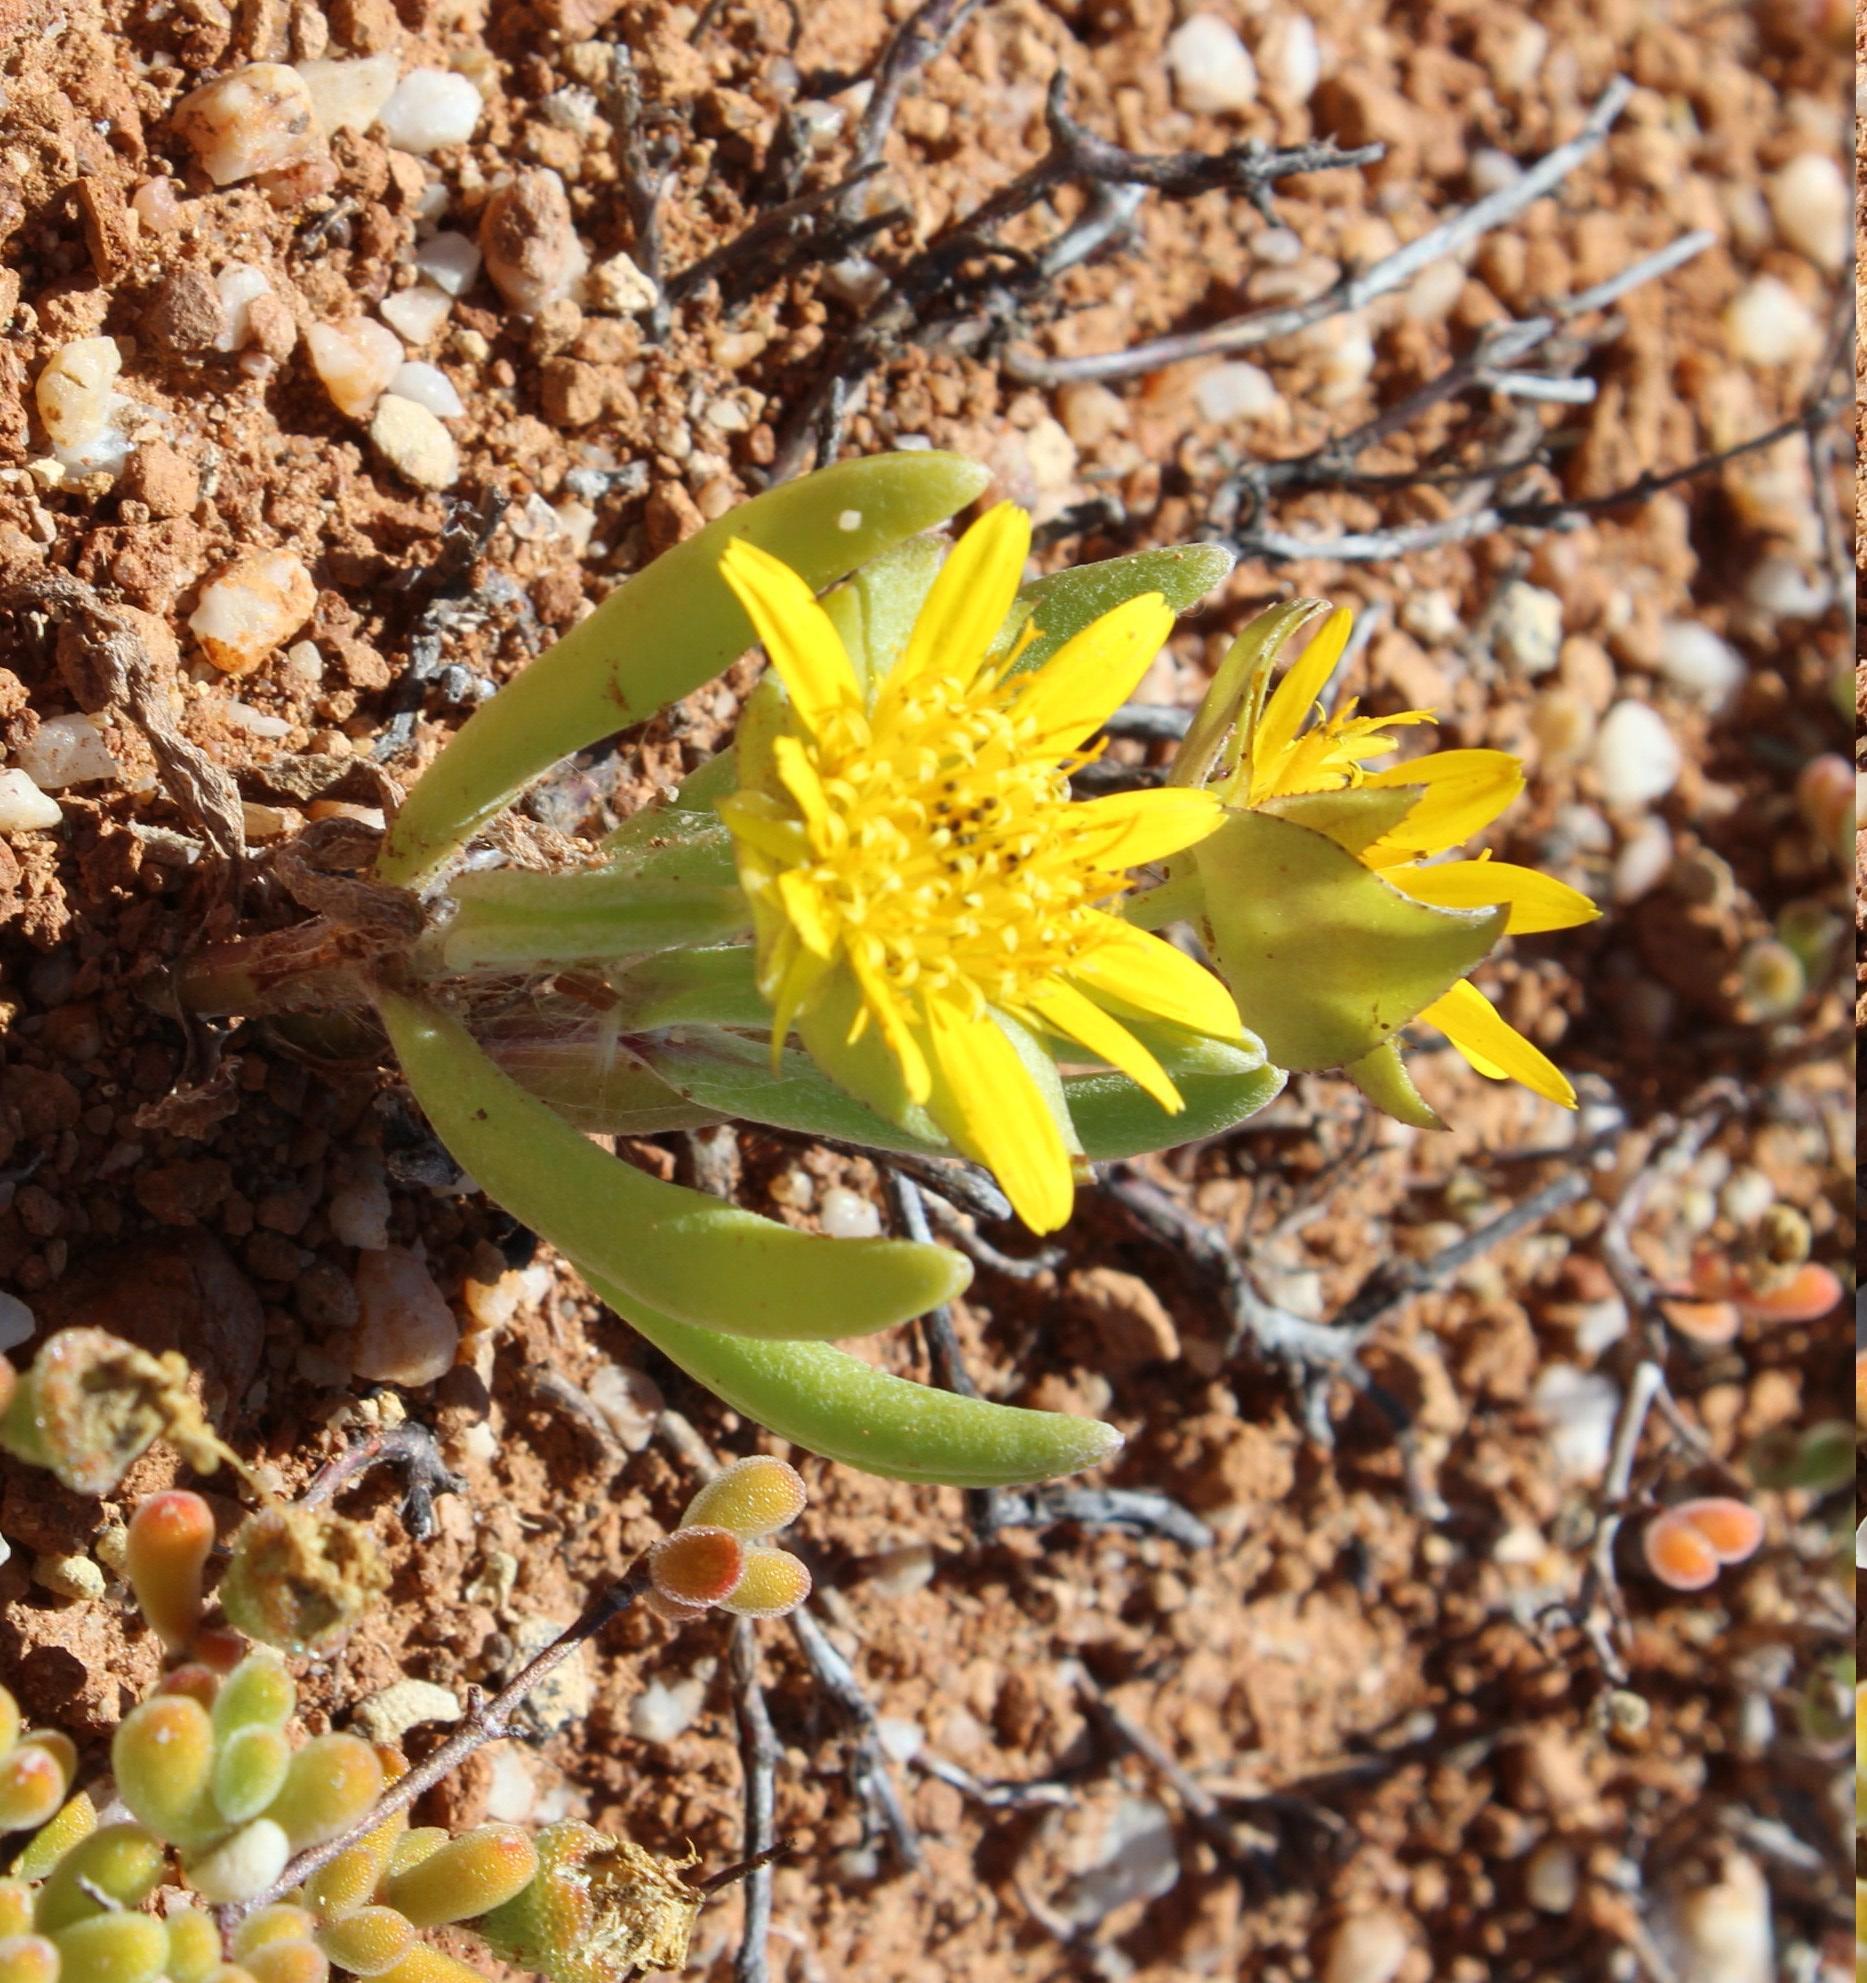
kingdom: Plantae
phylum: Tracheophyta
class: Magnoliopsida
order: Asterales
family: Asteraceae
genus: Didelta
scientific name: Didelta carnosa
